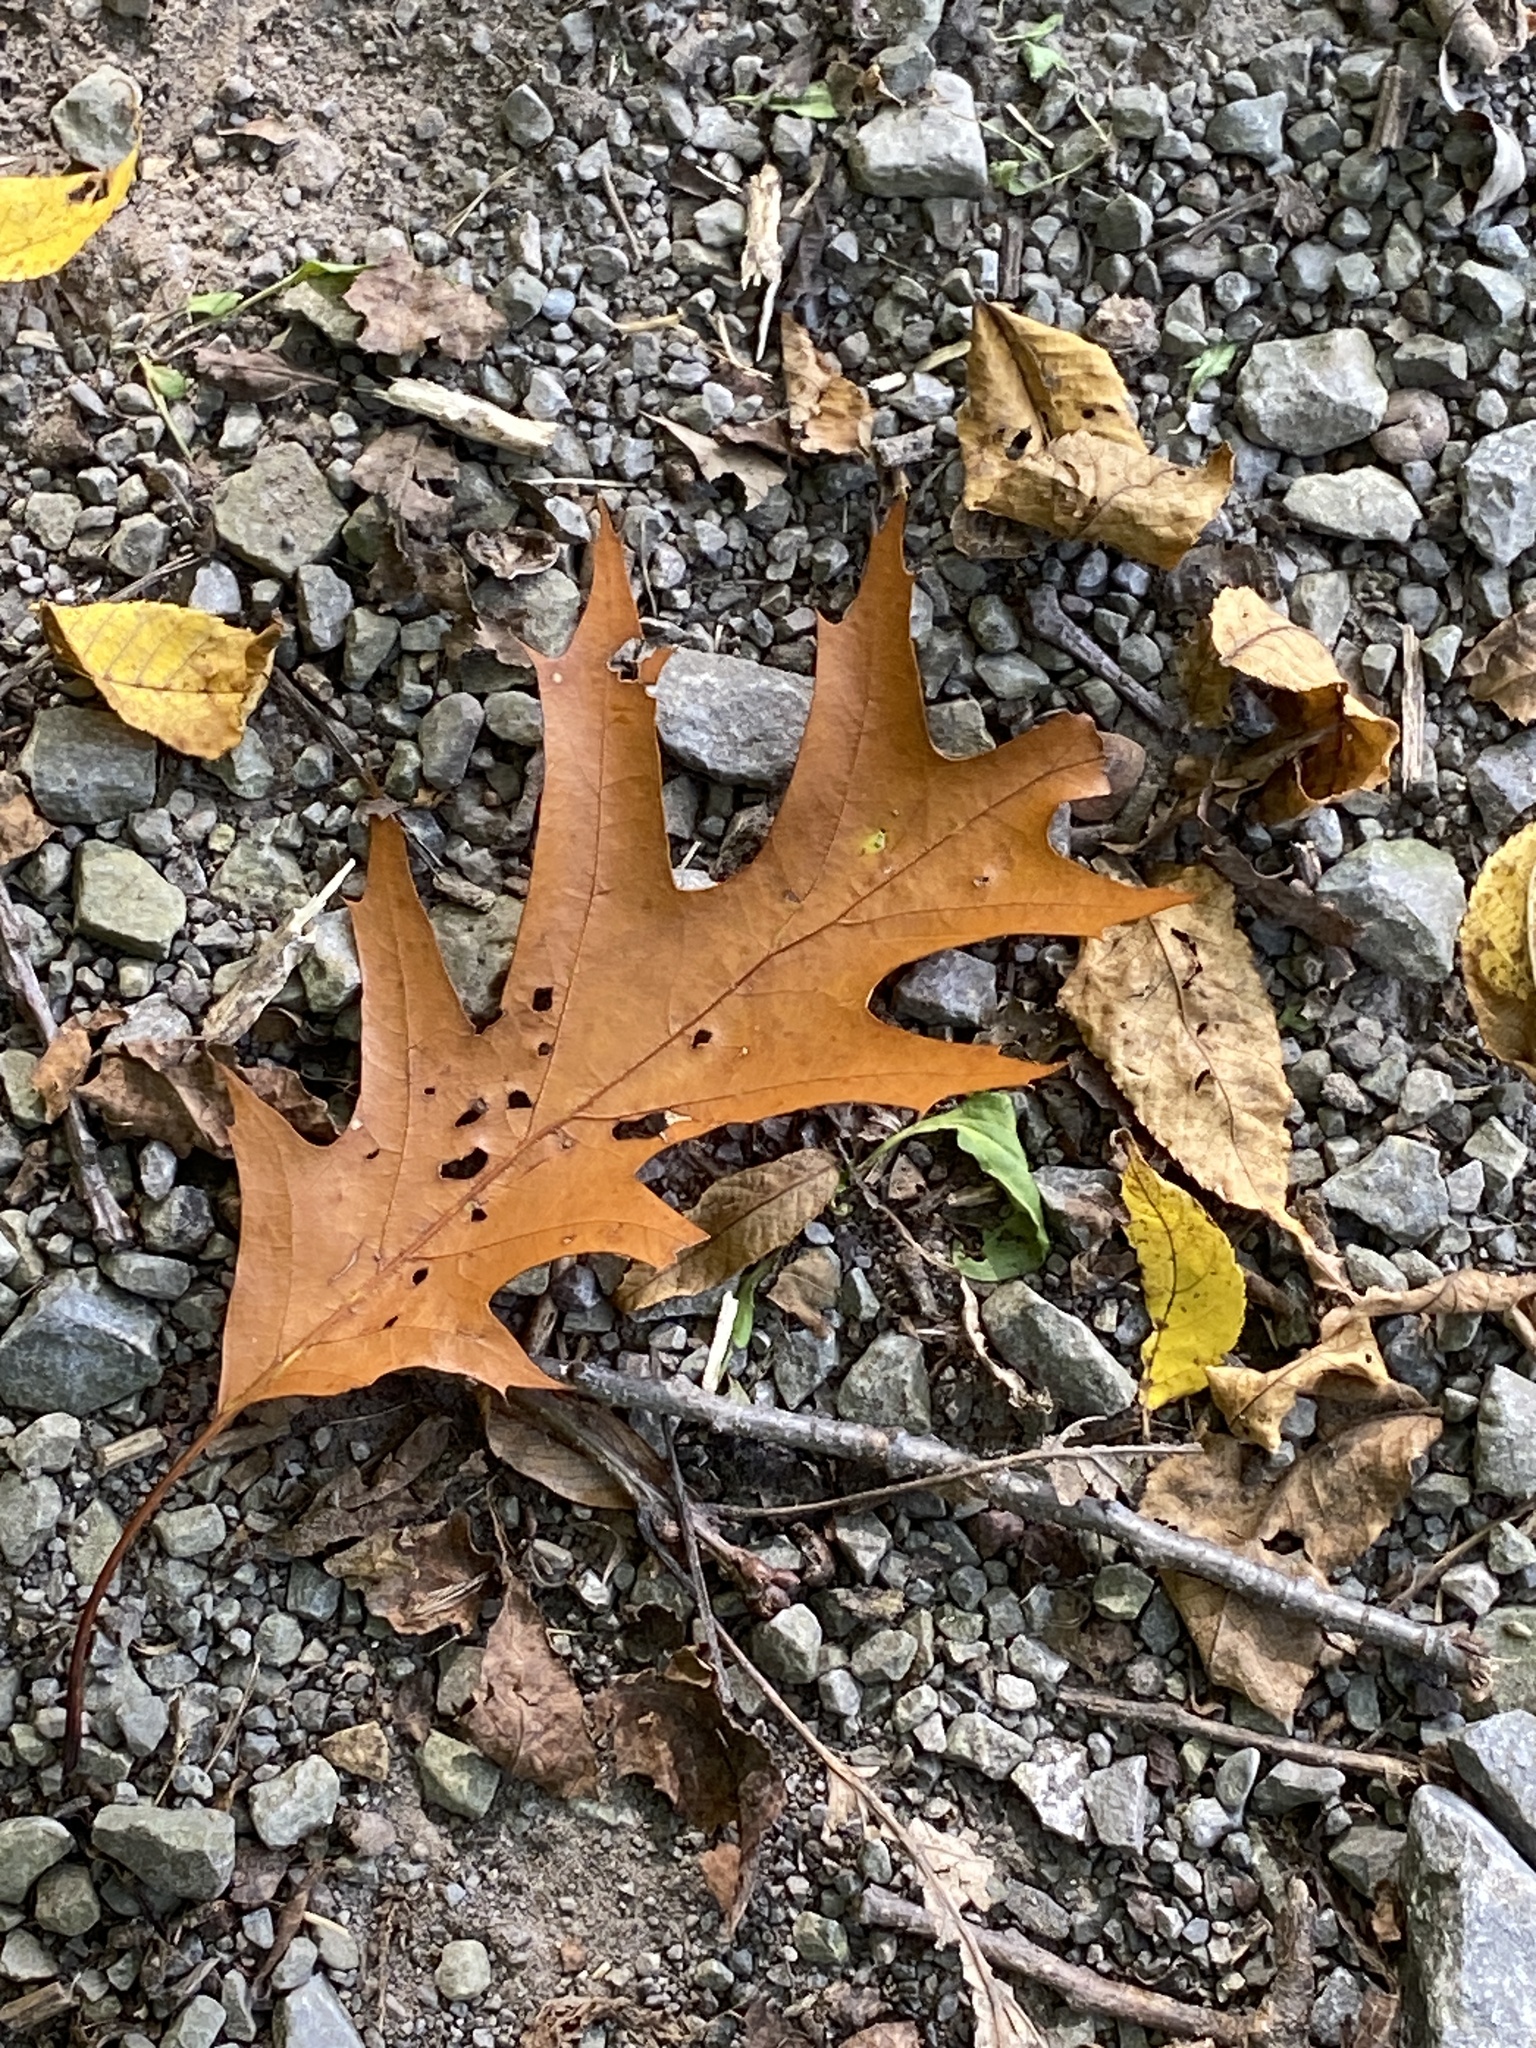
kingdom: Plantae
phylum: Tracheophyta
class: Magnoliopsida
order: Fagales
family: Fagaceae
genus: Quercus
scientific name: Quercus rubra
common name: Red oak
